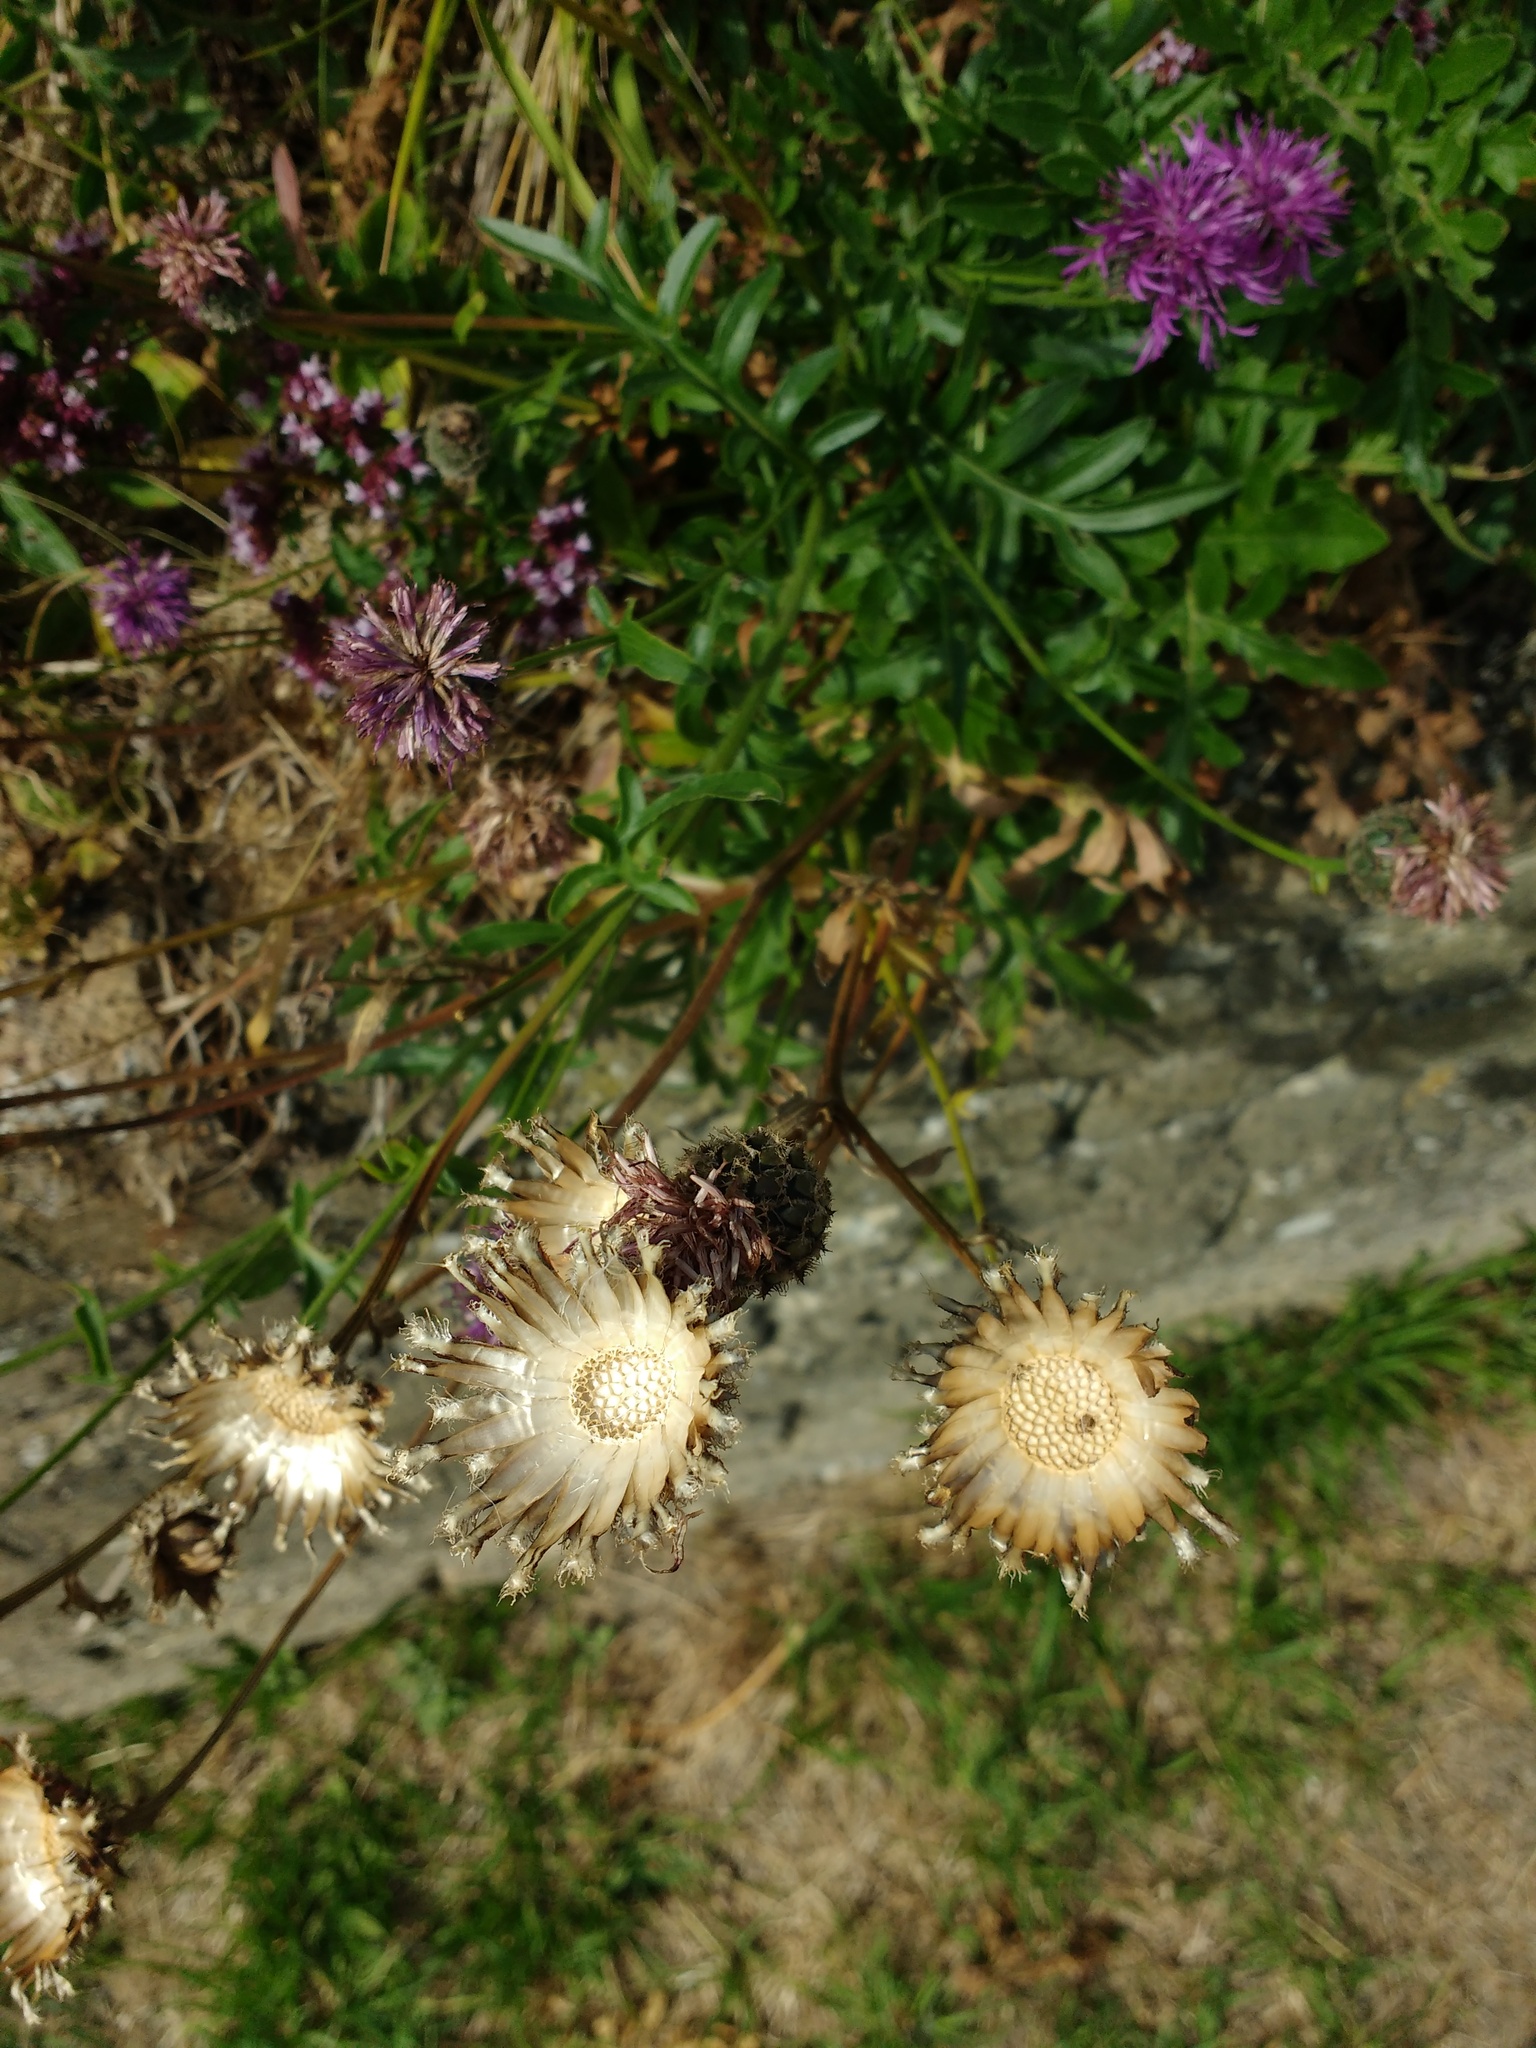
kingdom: Plantae
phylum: Tracheophyta
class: Magnoliopsida
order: Asterales
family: Asteraceae
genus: Centaurea
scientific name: Centaurea scabiosa
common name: Greater knapweed
